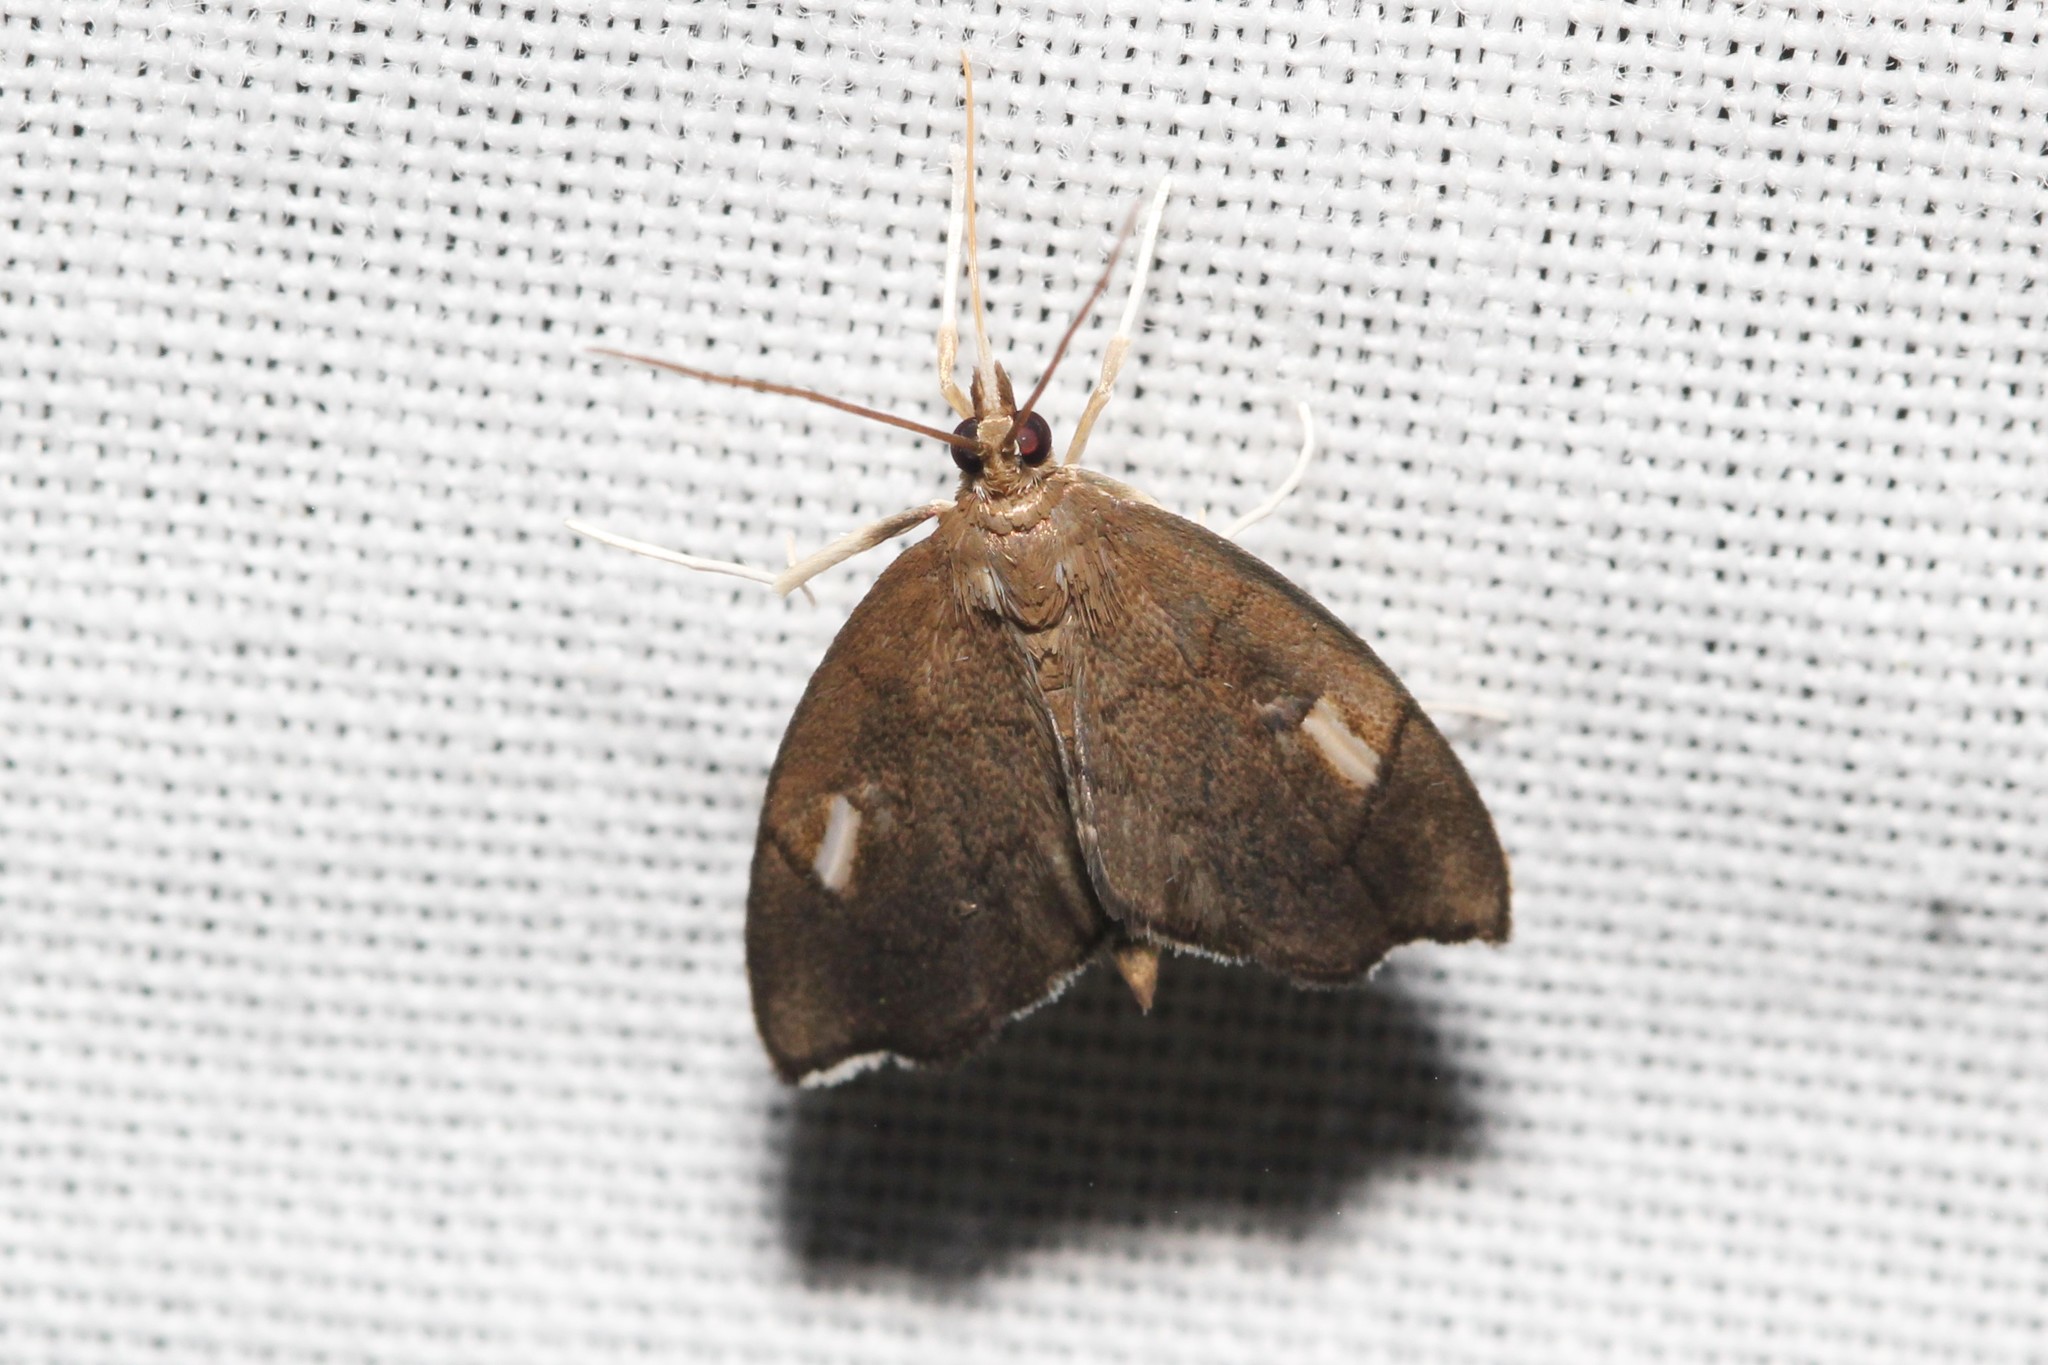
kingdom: Animalia
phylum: Arthropoda
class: Insecta
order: Lepidoptera
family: Crambidae
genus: Perispasta
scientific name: Perispasta caeculalis
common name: Titian peale's moth
